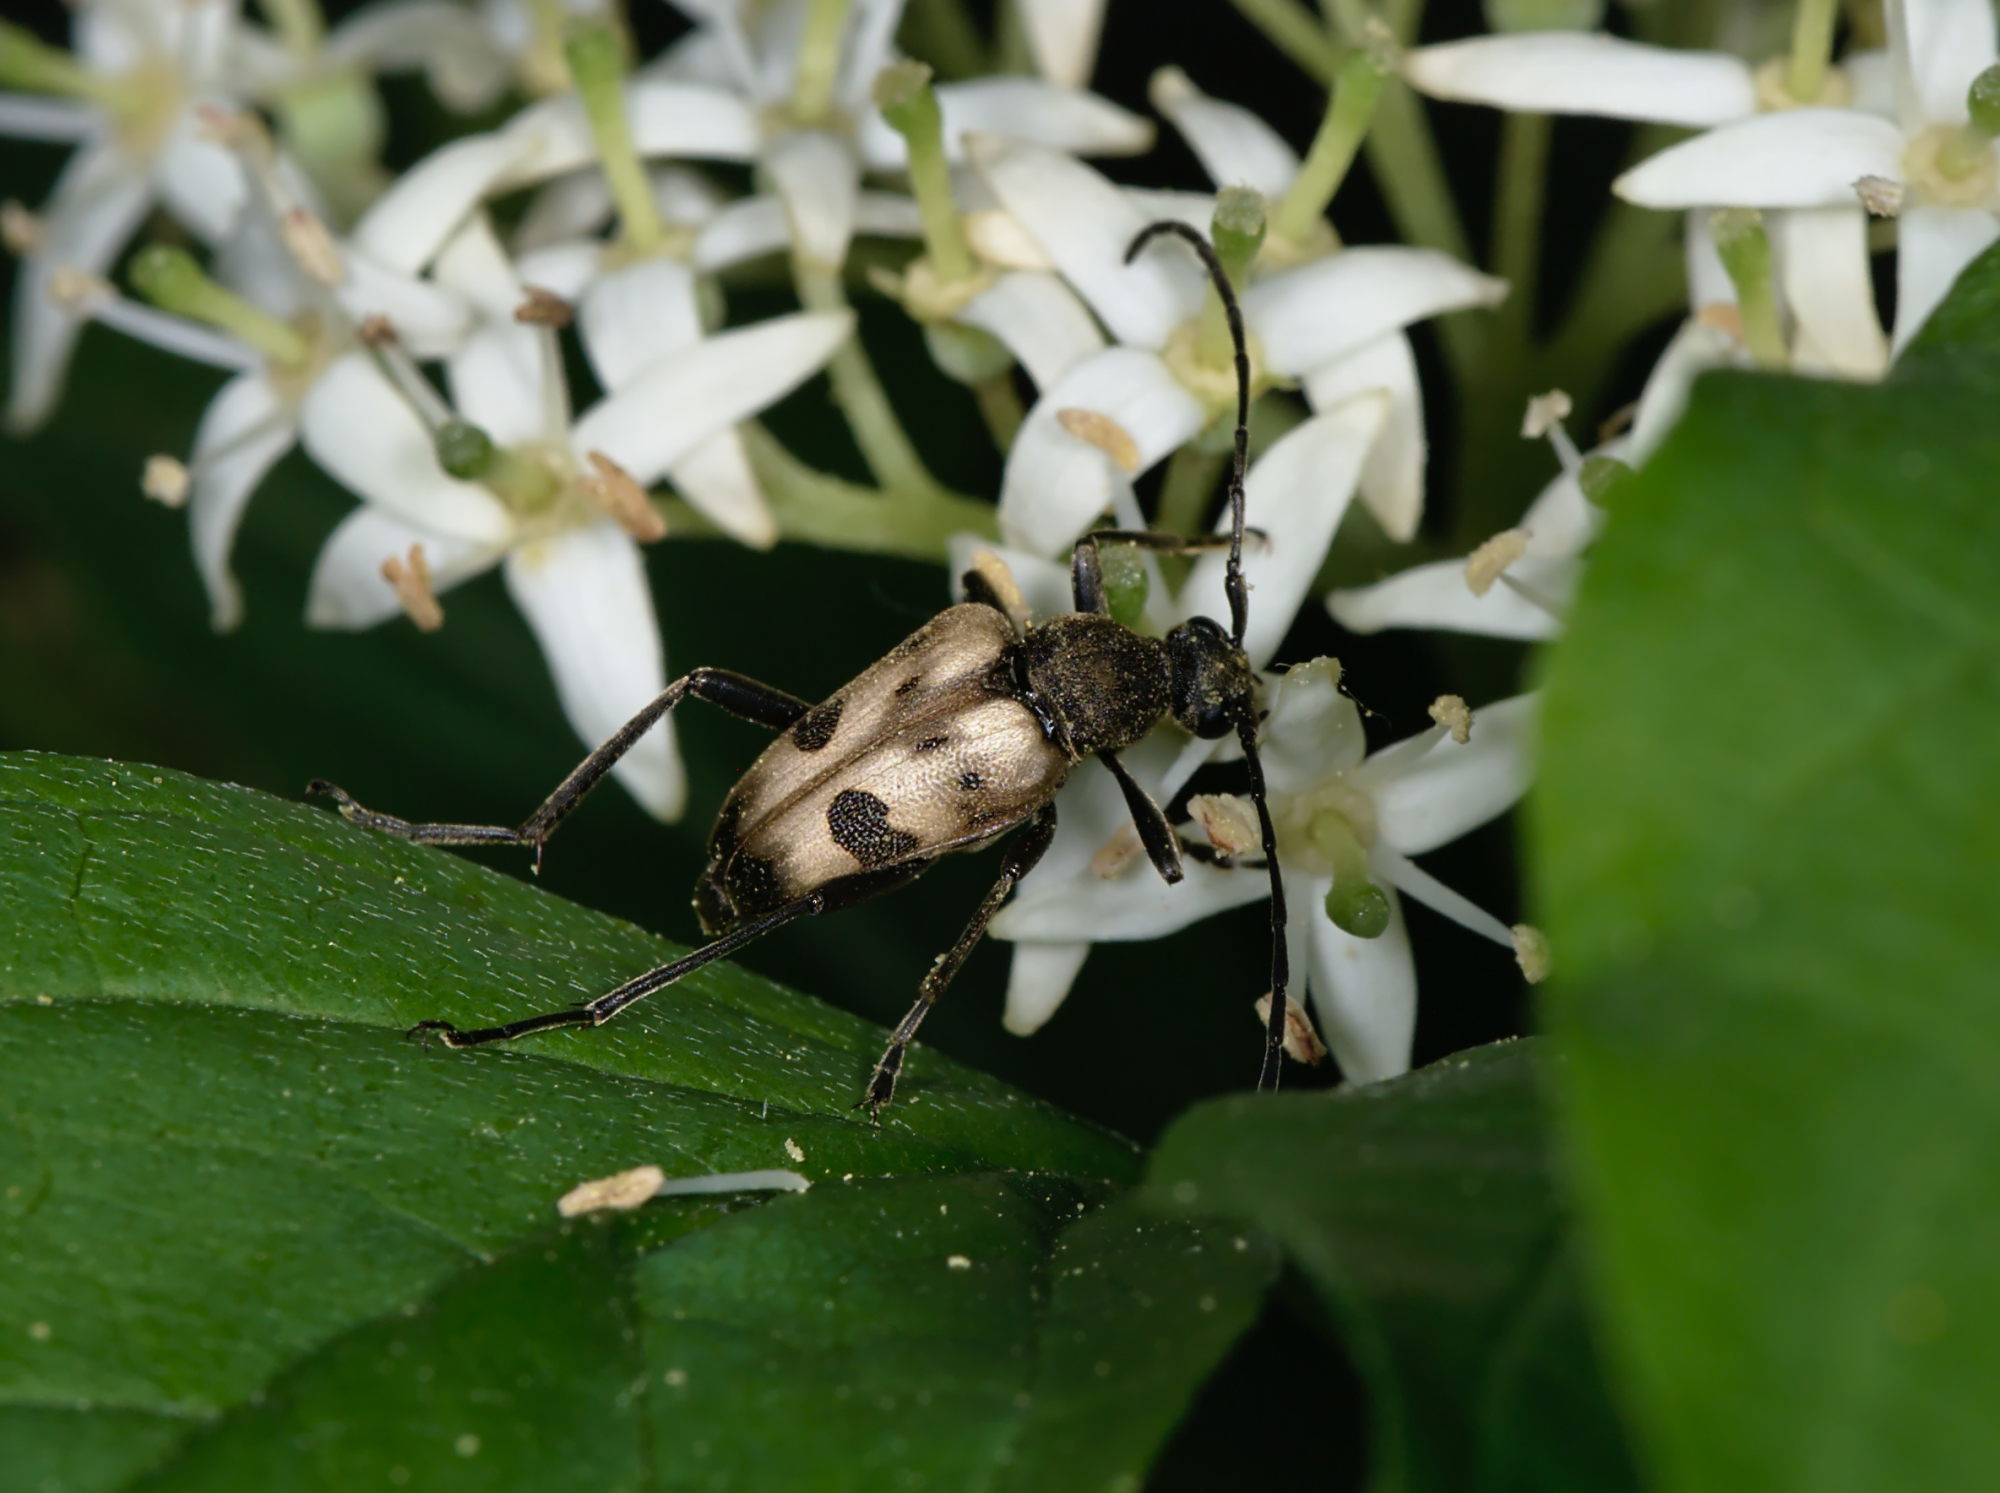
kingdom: Animalia
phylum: Arthropoda
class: Insecta
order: Coleoptera
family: Cerambycidae
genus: Pachytodes
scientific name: Pachytodes cerambyciformis
